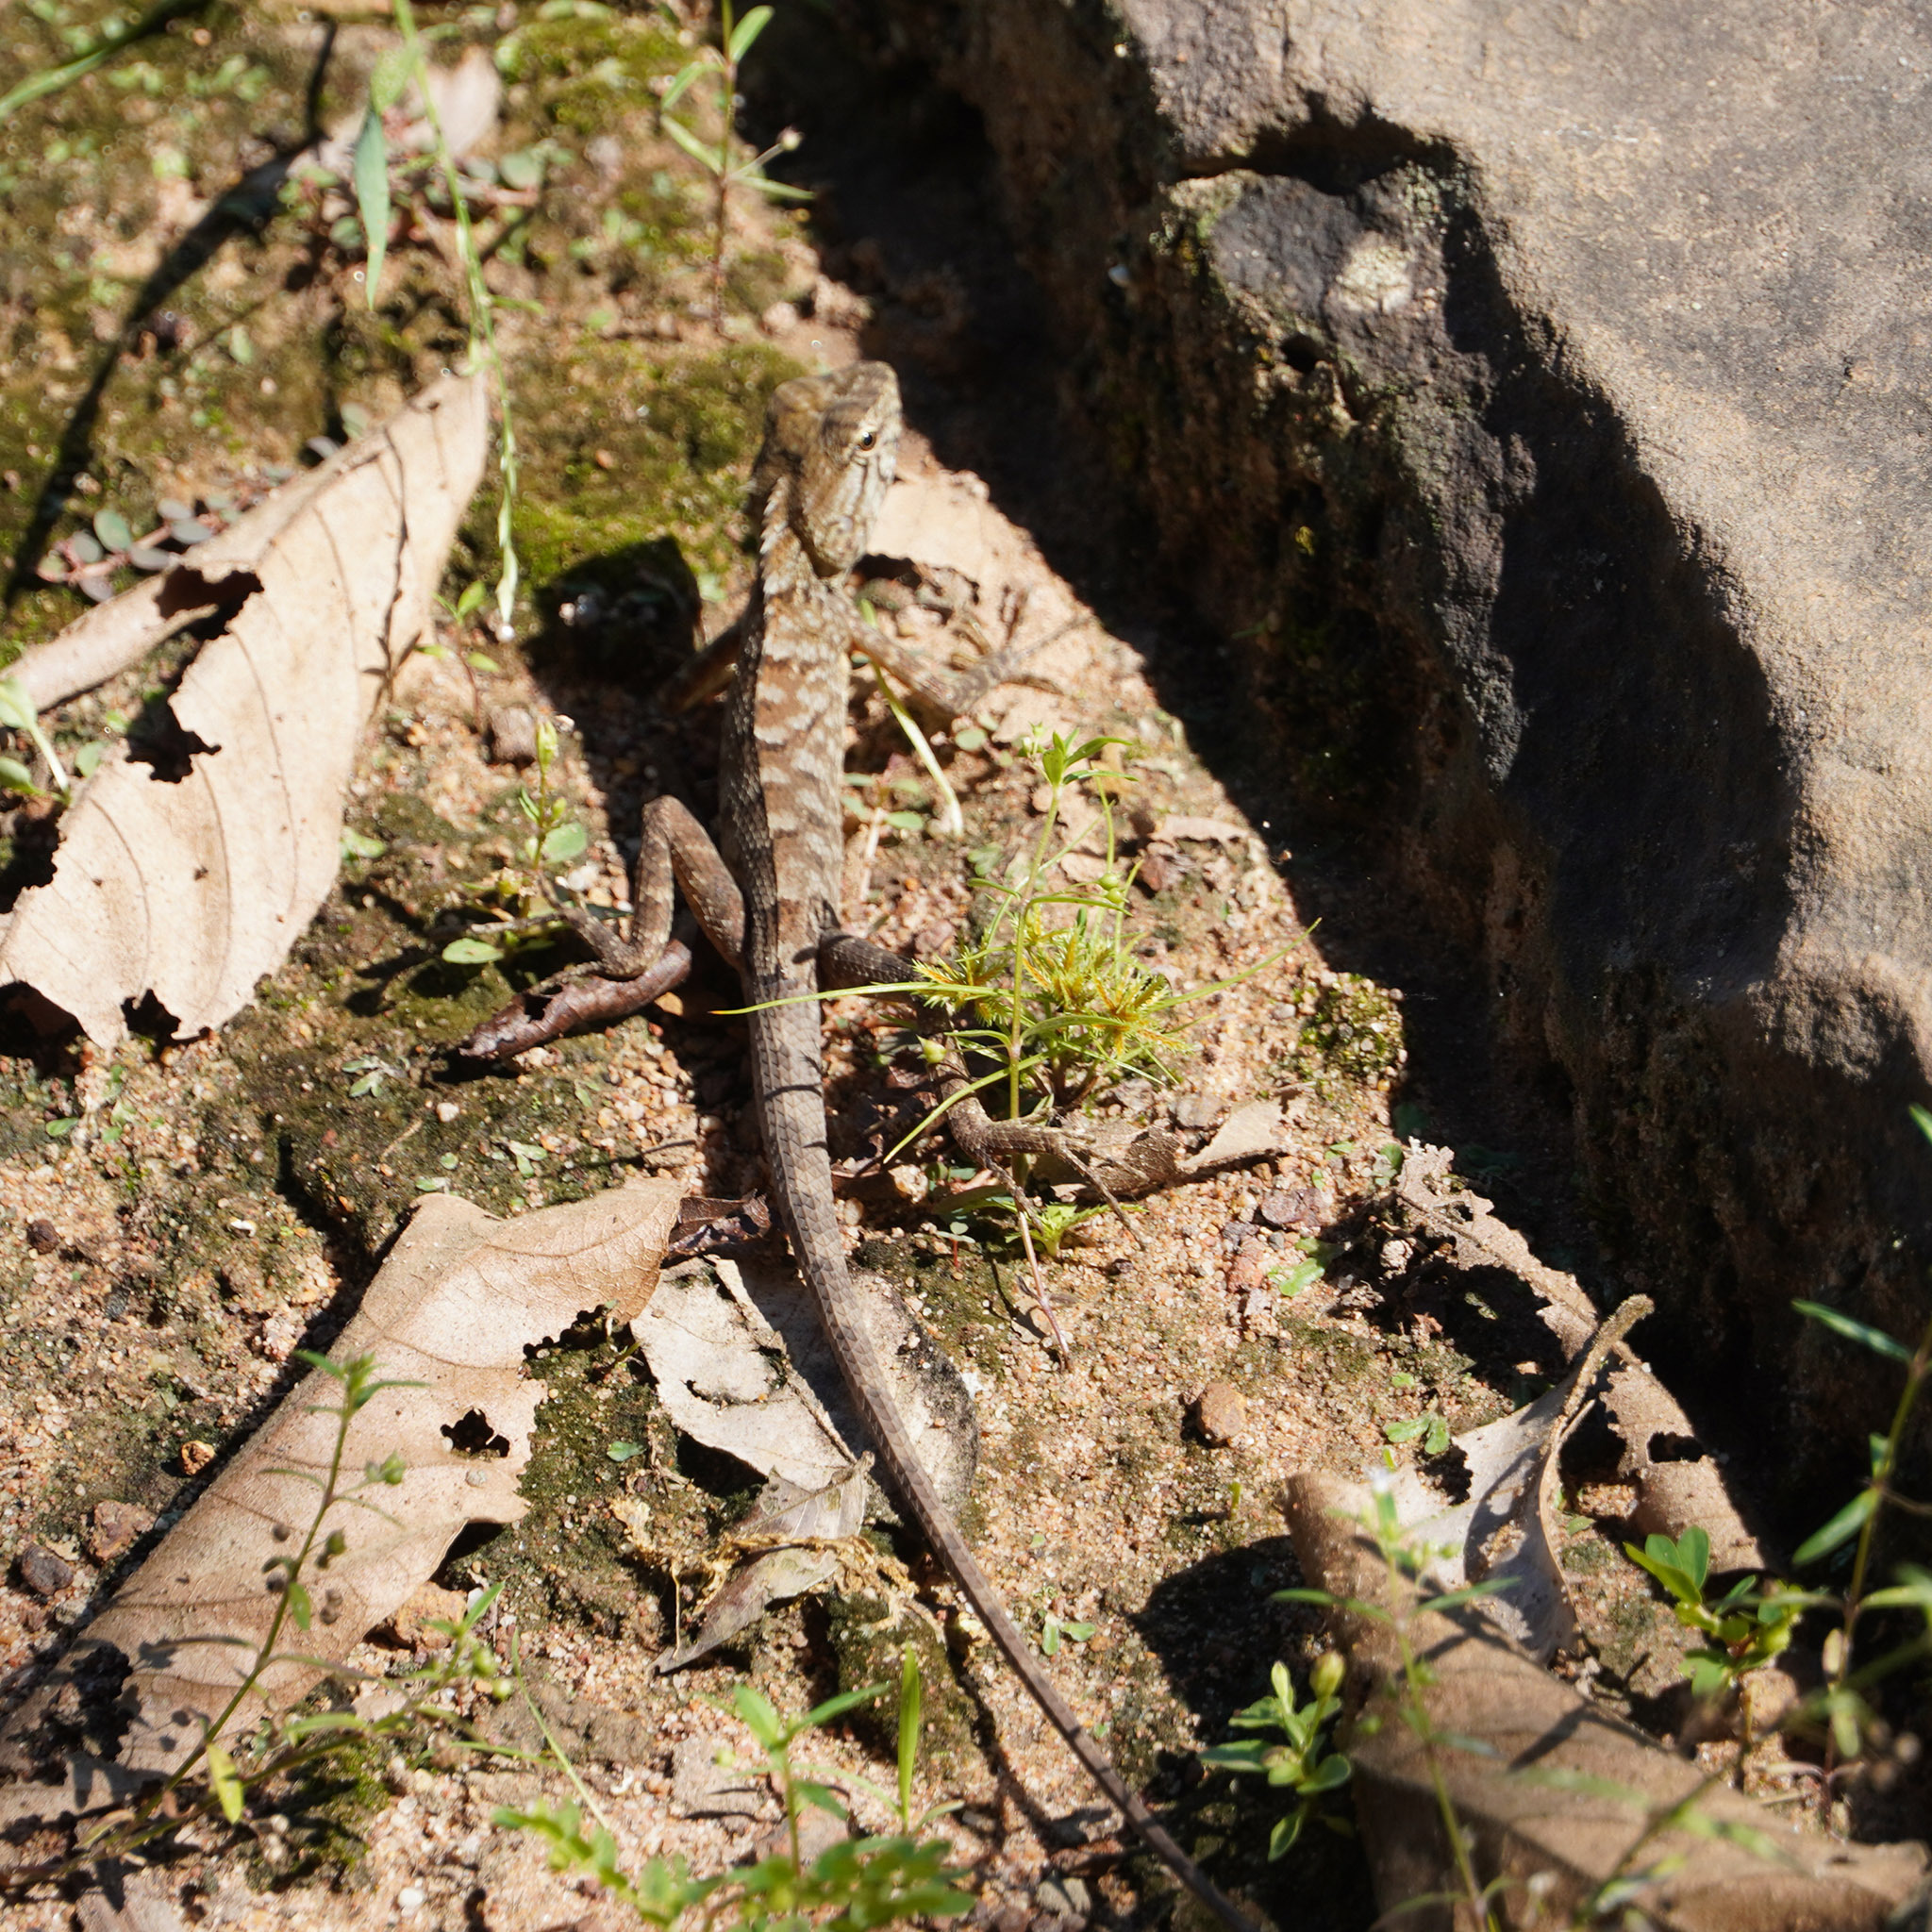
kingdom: Animalia
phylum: Chordata
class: Squamata
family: Agamidae
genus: Calotes
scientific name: Calotes versicolor
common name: Oriental garden lizard
